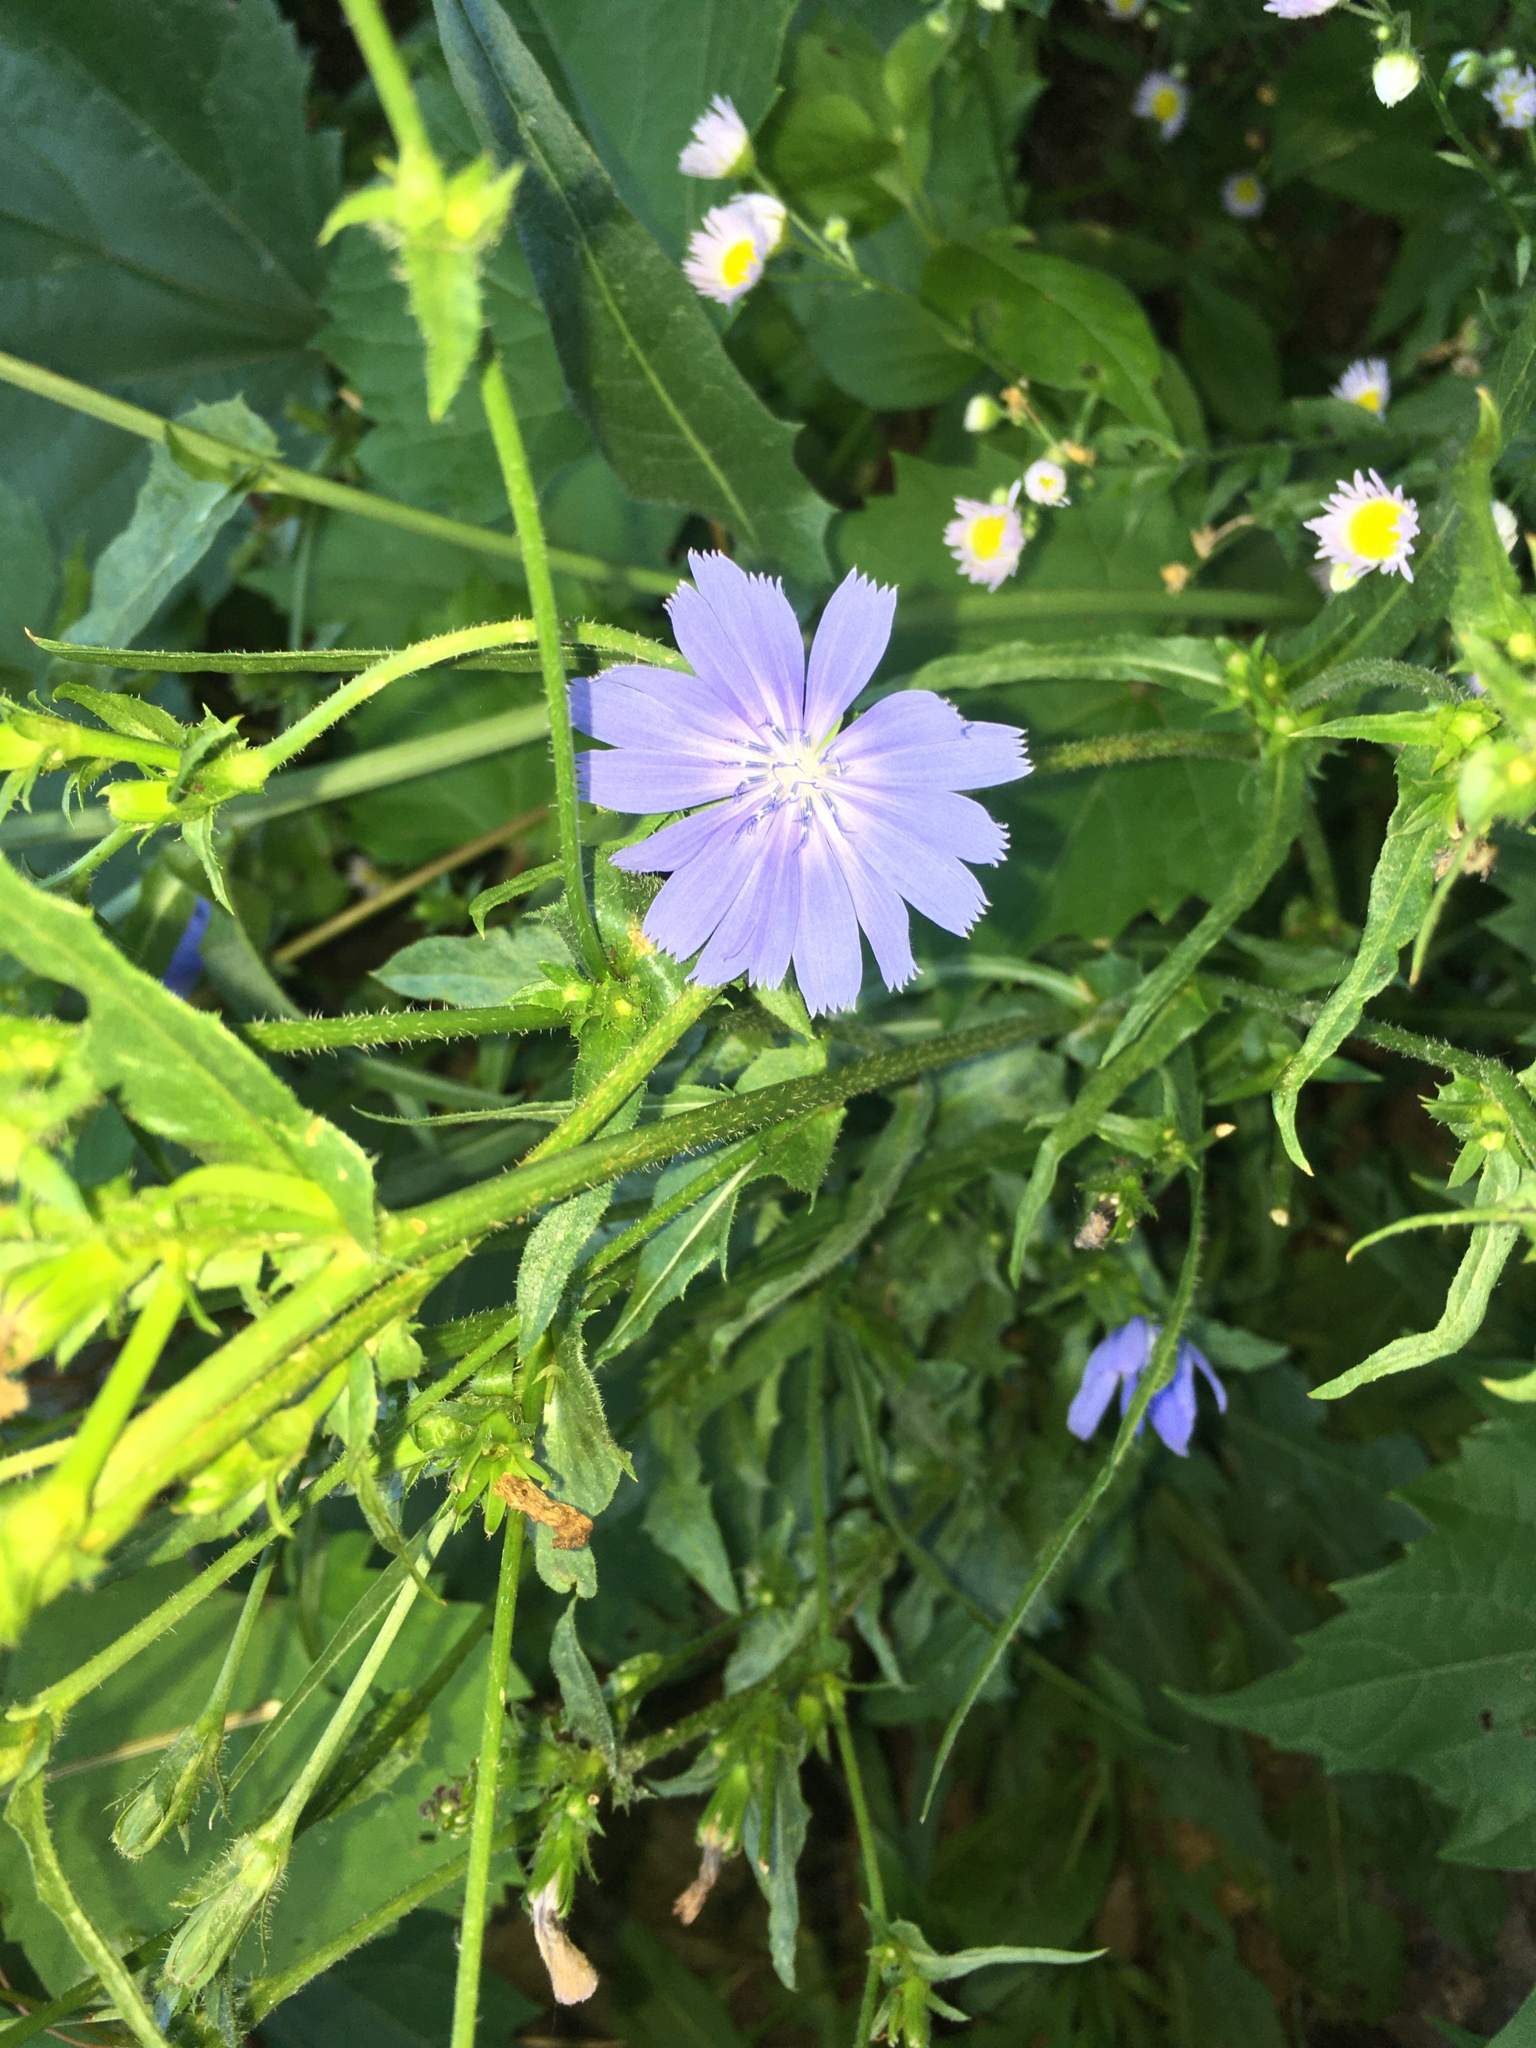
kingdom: Plantae
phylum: Tracheophyta
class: Magnoliopsida
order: Asterales
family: Asteraceae
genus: Cichorium
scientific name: Cichorium intybus
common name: Chicory
